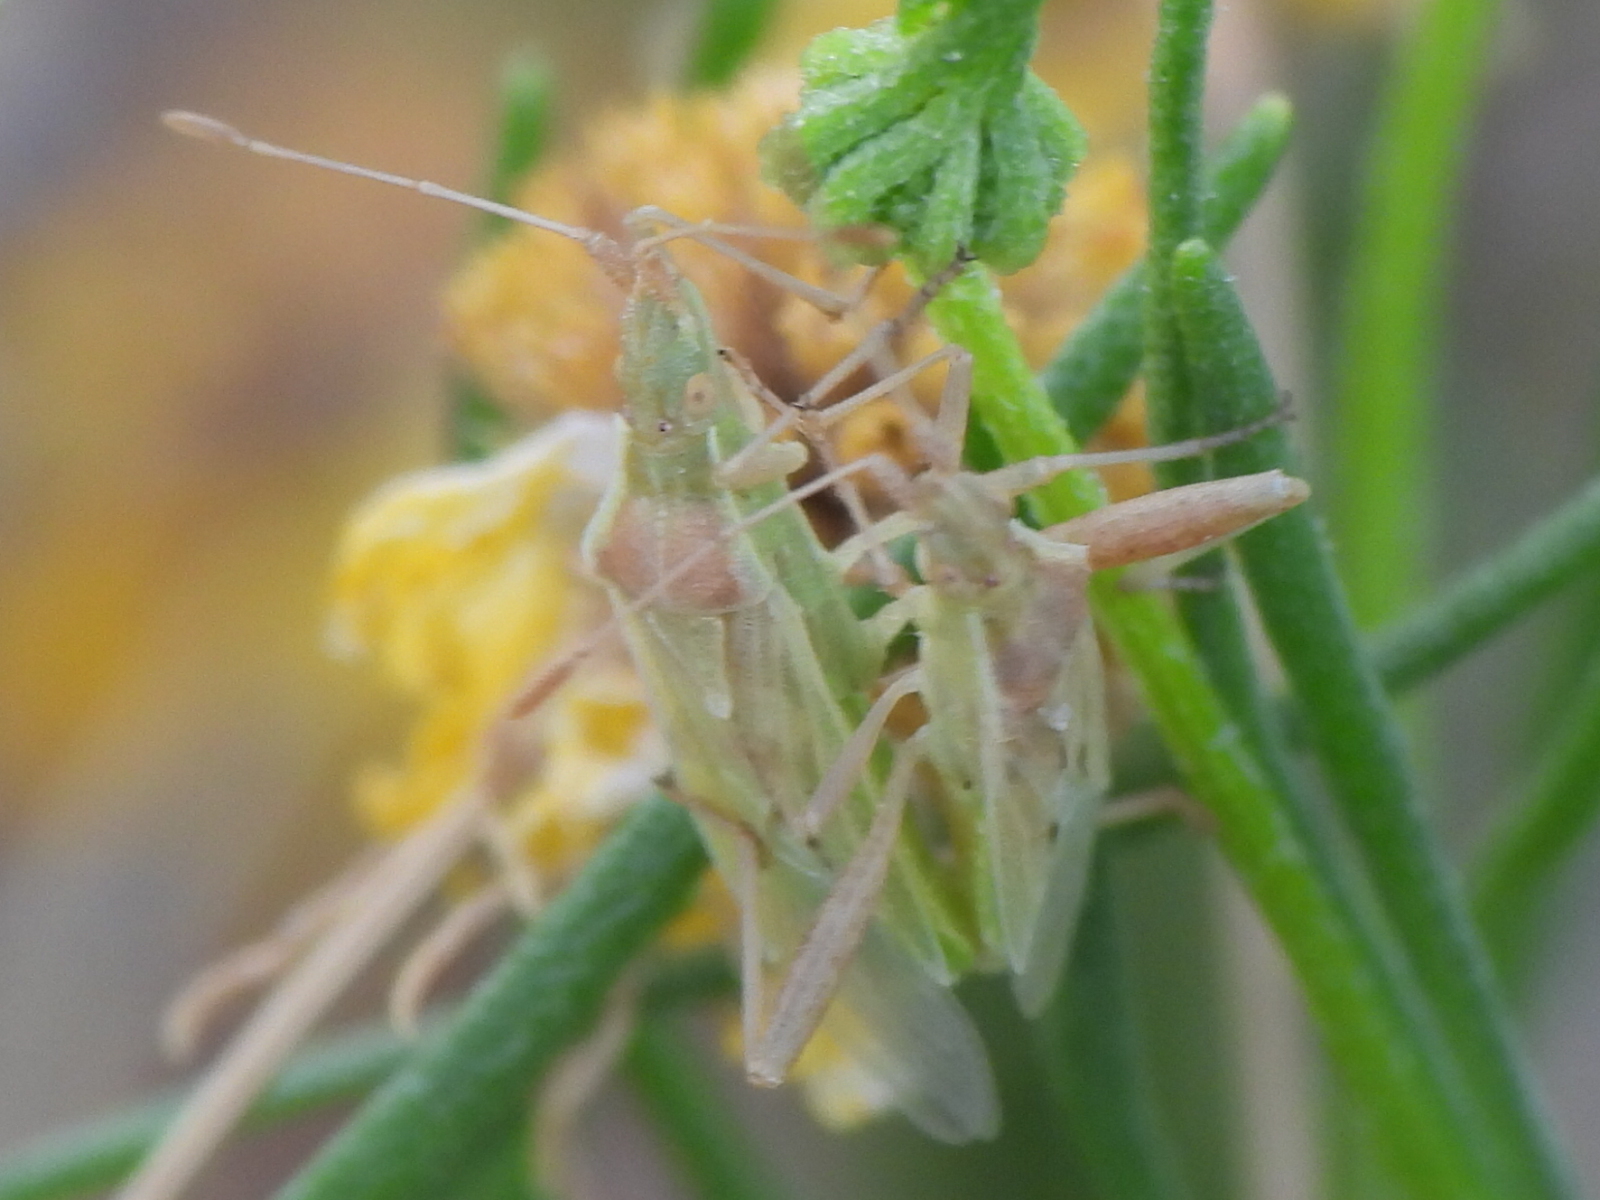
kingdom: Animalia
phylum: Arthropoda
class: Insecta
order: Hemiptera
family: Rhopalidae
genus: Harmostes
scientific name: Harmostes reflexulus
